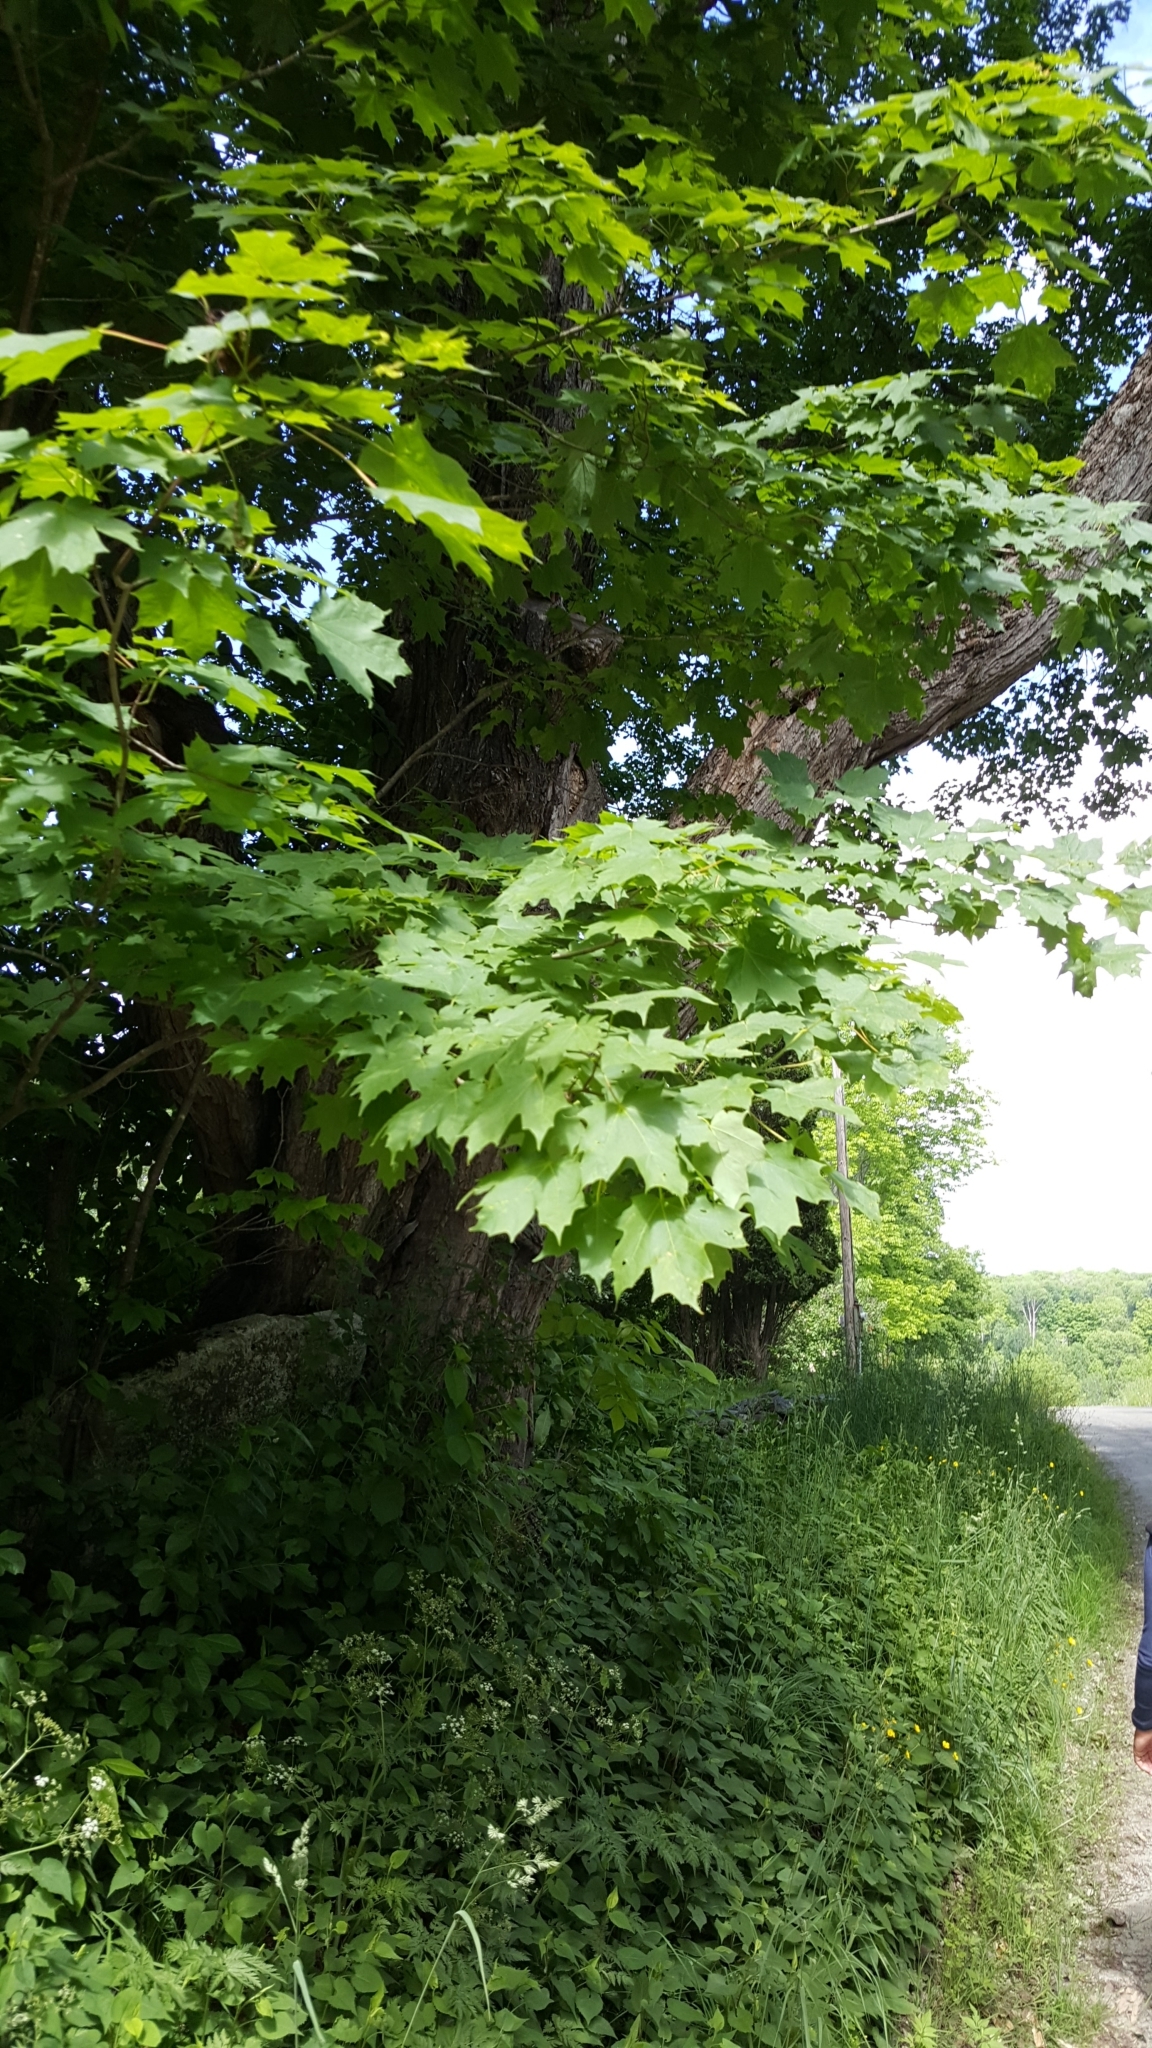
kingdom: Plantae
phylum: Tracheophyta
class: Magnoliopsida
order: Sapindales
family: Sapindaceae
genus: Acer
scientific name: Acer saccharum
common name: Sugar maple
